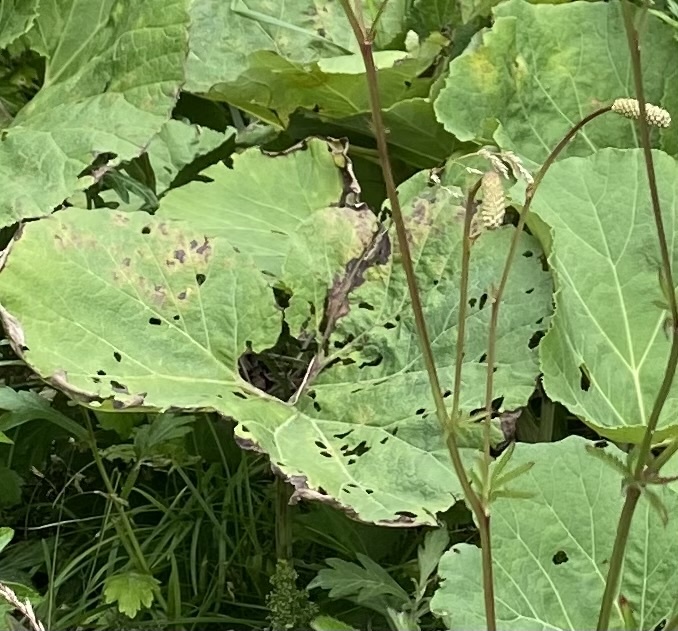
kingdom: Plantae
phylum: Tracheophyta
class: Magnoliopsida
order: Asterales
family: Asteraceae
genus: Petasites
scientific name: Petasites japonicus
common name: Giant butterbur
